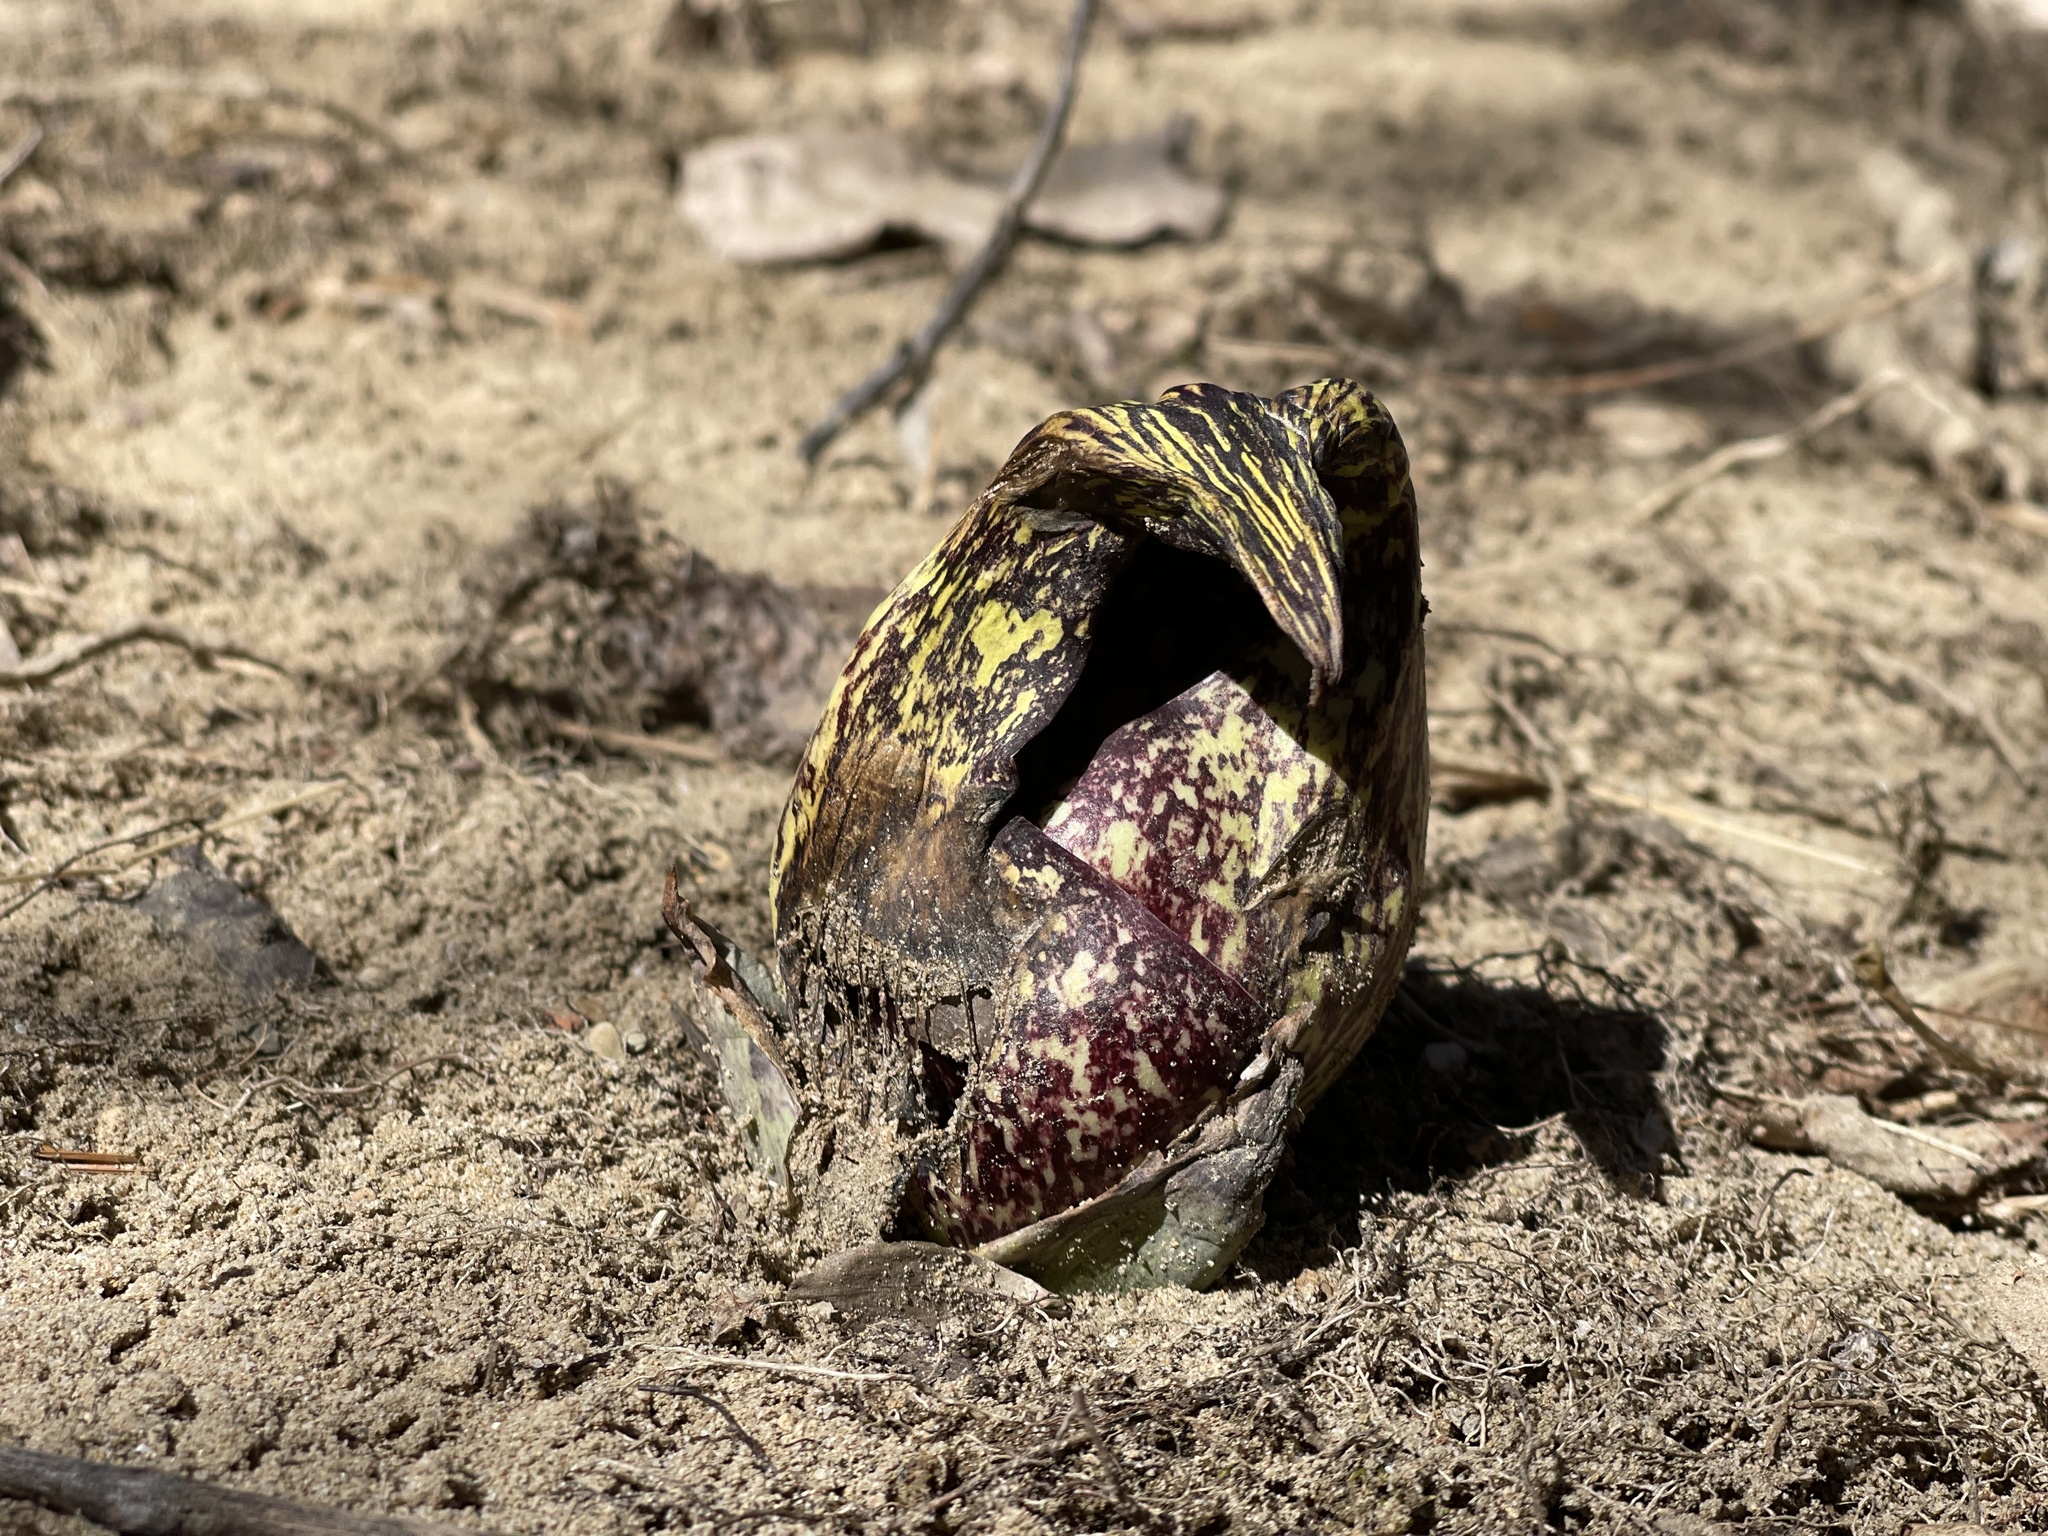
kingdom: Plantae
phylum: Tracheophyta
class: Liliopsida
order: Alismatales
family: Araceae
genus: Symplocarpus
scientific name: Symplocarpus foetidus
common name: Eastern skunk cabbage
